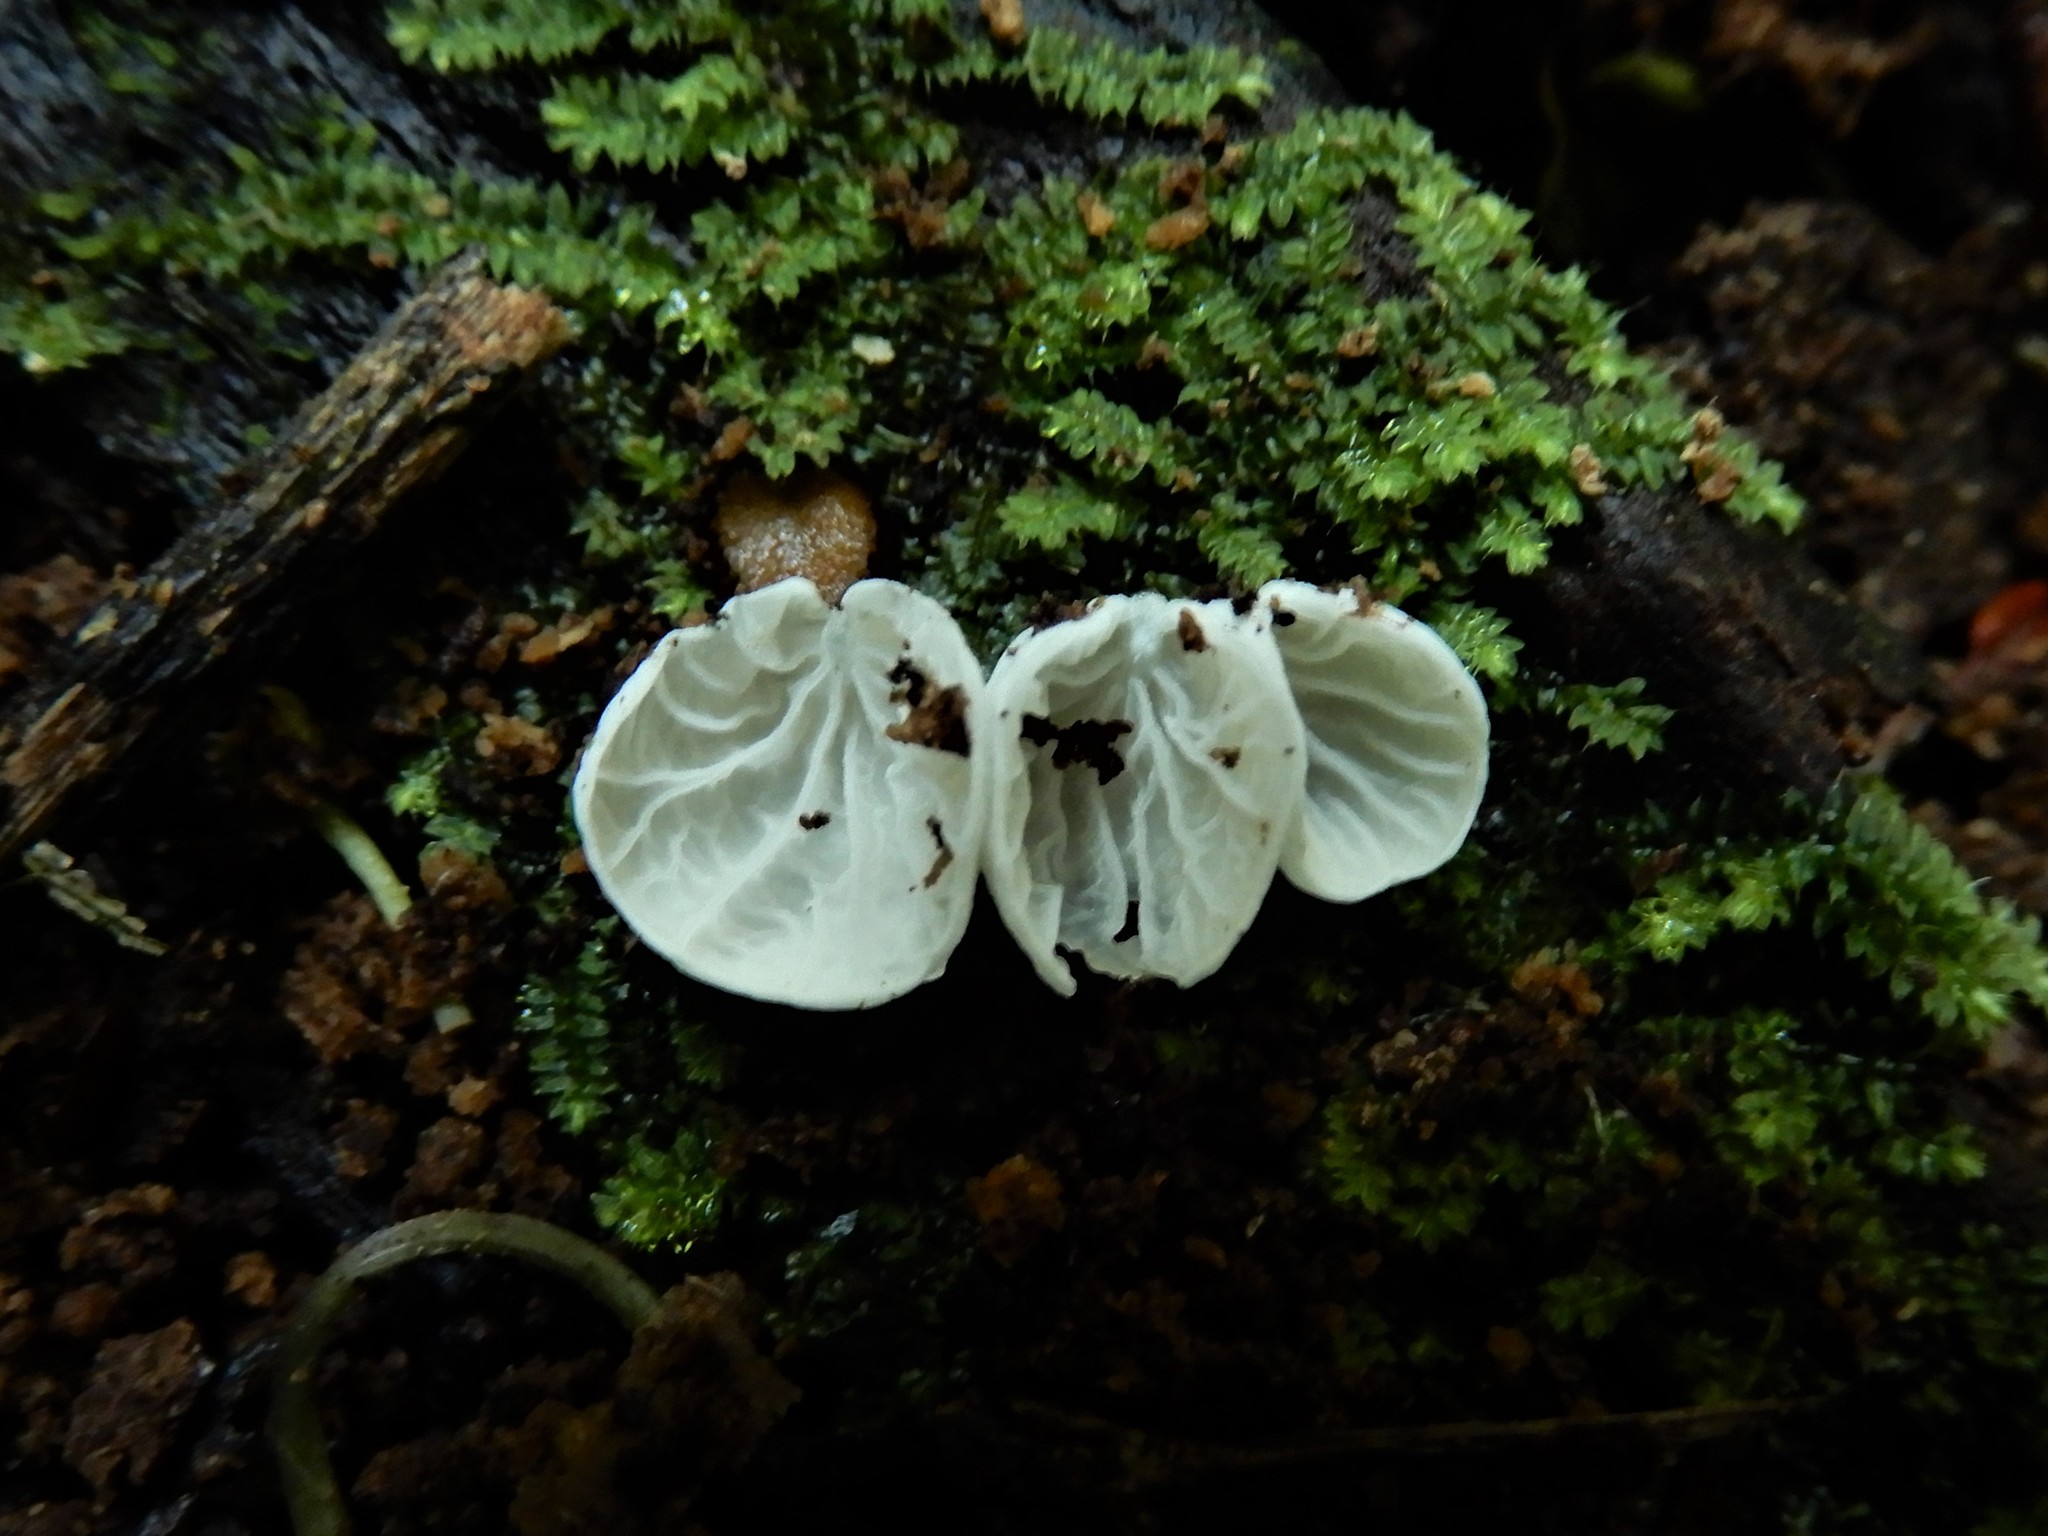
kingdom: Fungi
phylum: Basidiomycota
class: Agaricomycetes
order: Agaricales
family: Marasmiaceae
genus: Campanella
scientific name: Campanella tristis
